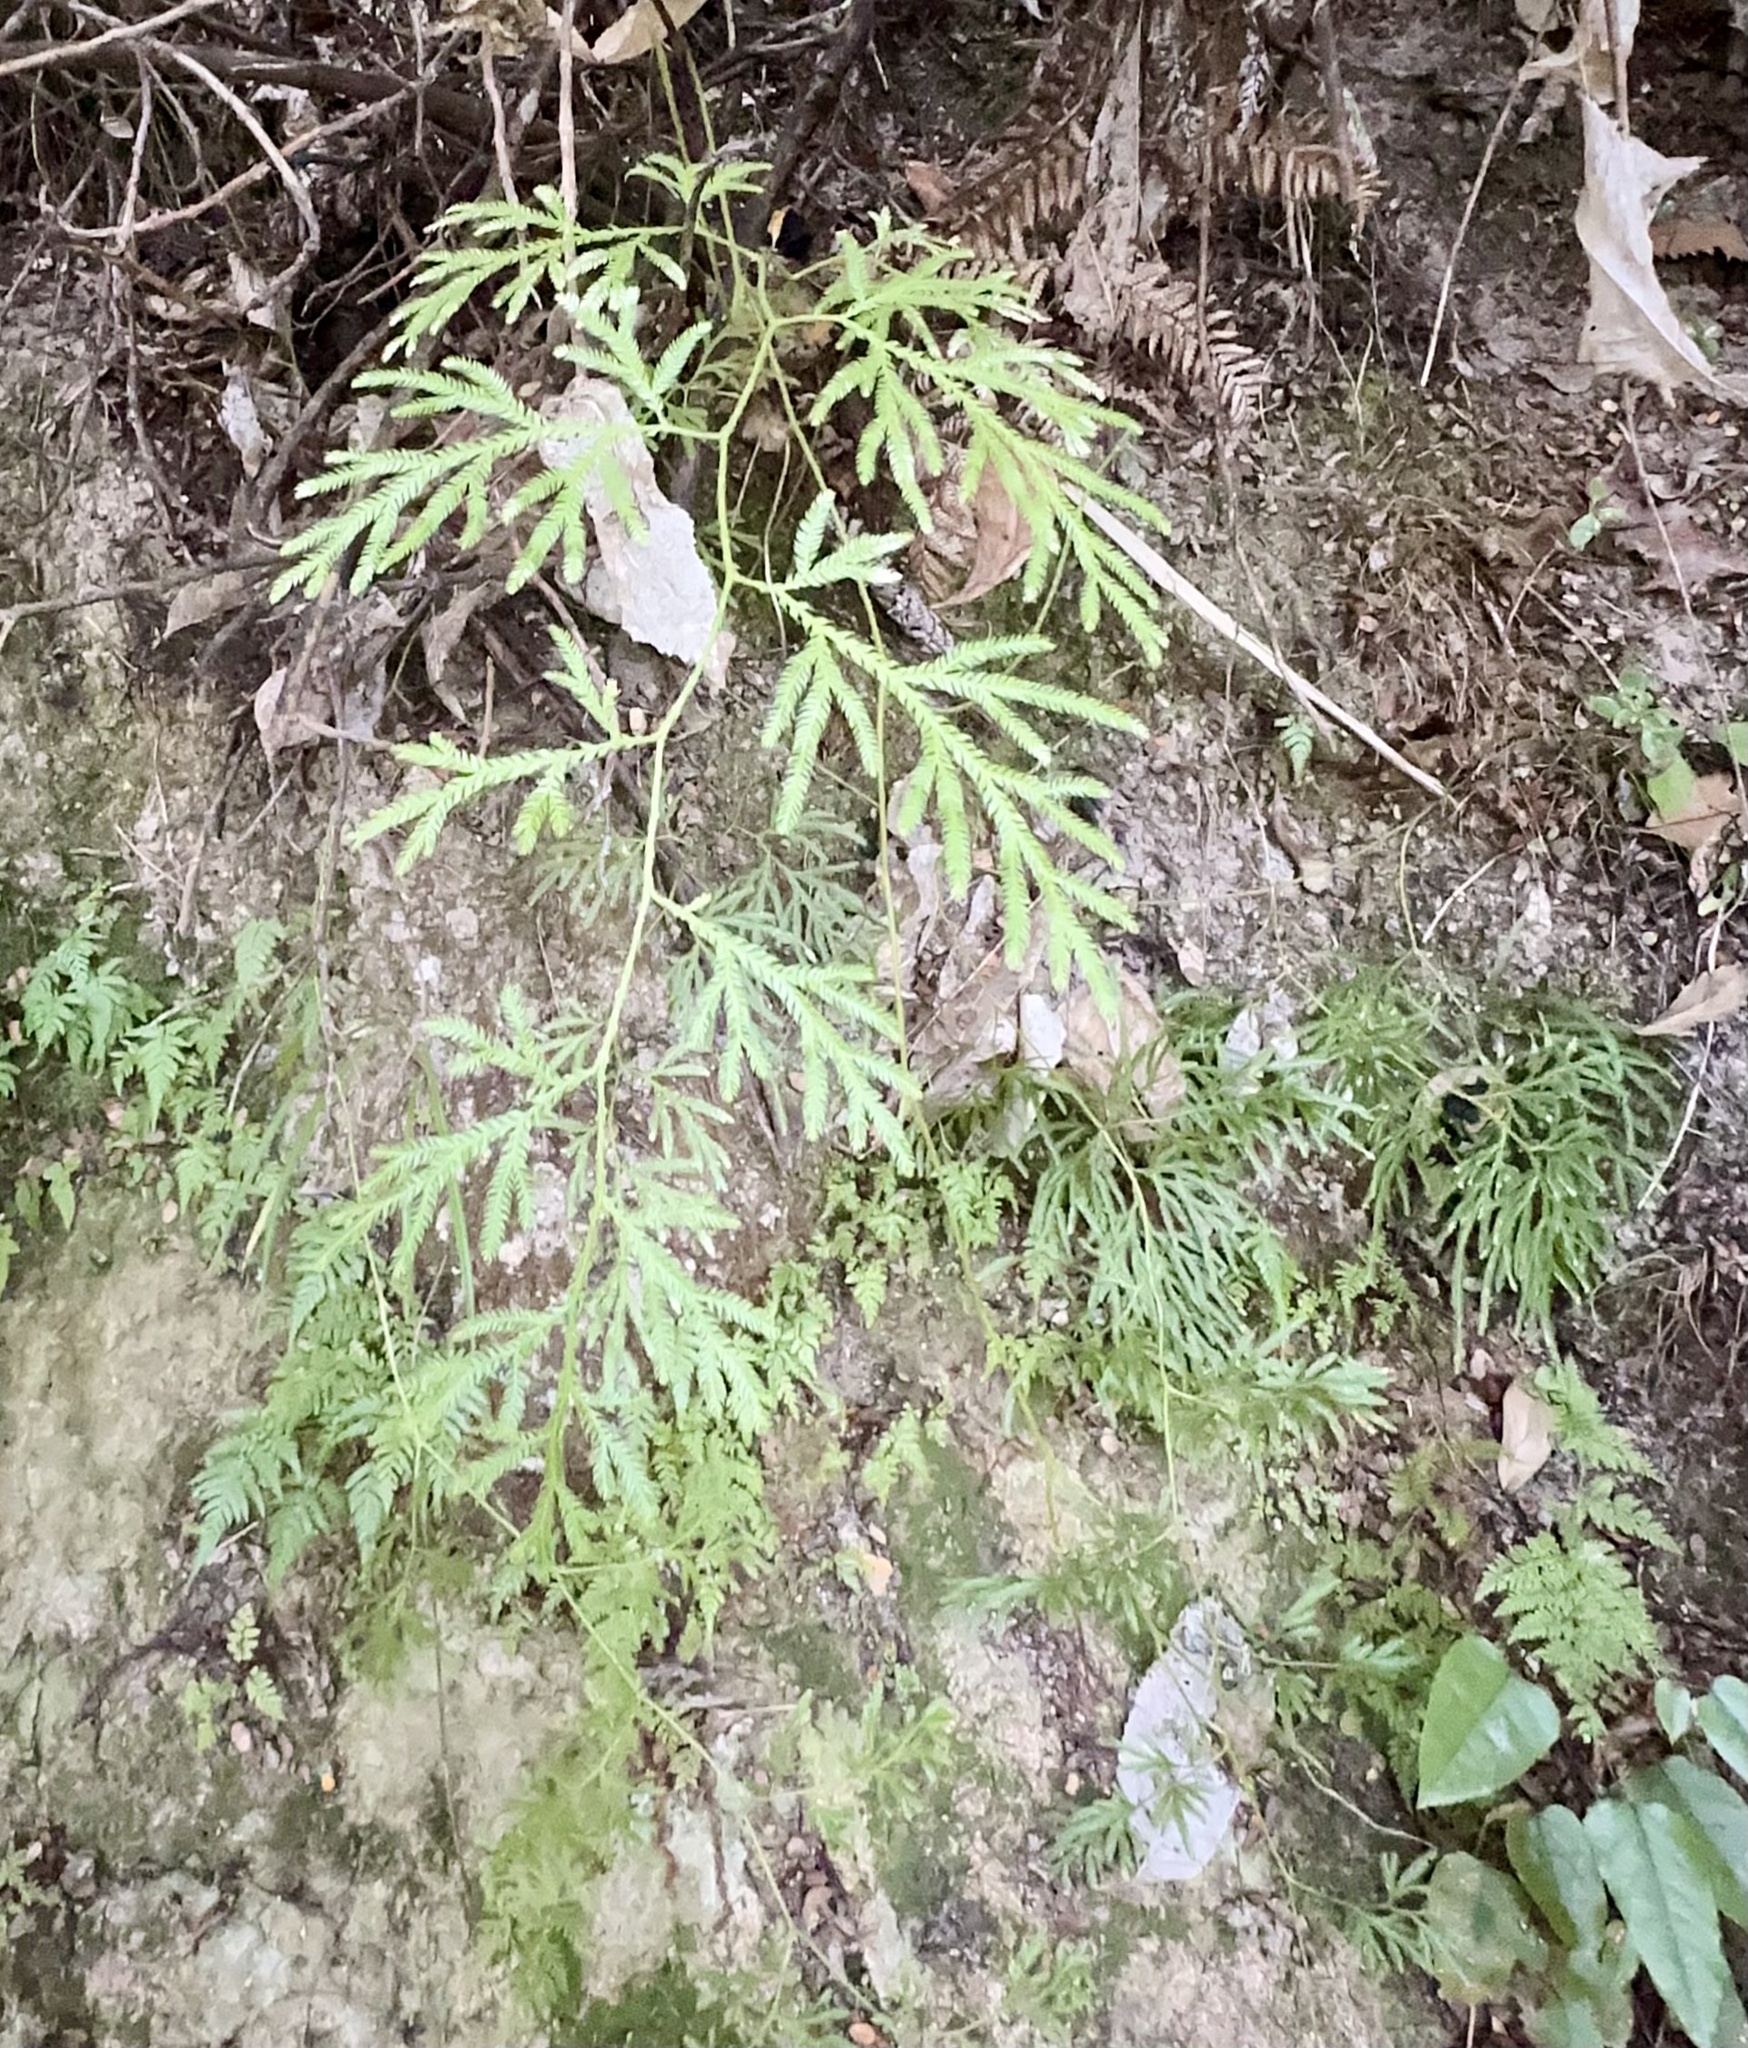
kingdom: Plantae
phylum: Tracheophyta
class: Lycopodiopsida
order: Lycopodiales
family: Lycopodiaceae
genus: Lycopodium
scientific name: Lycopodium volubile
